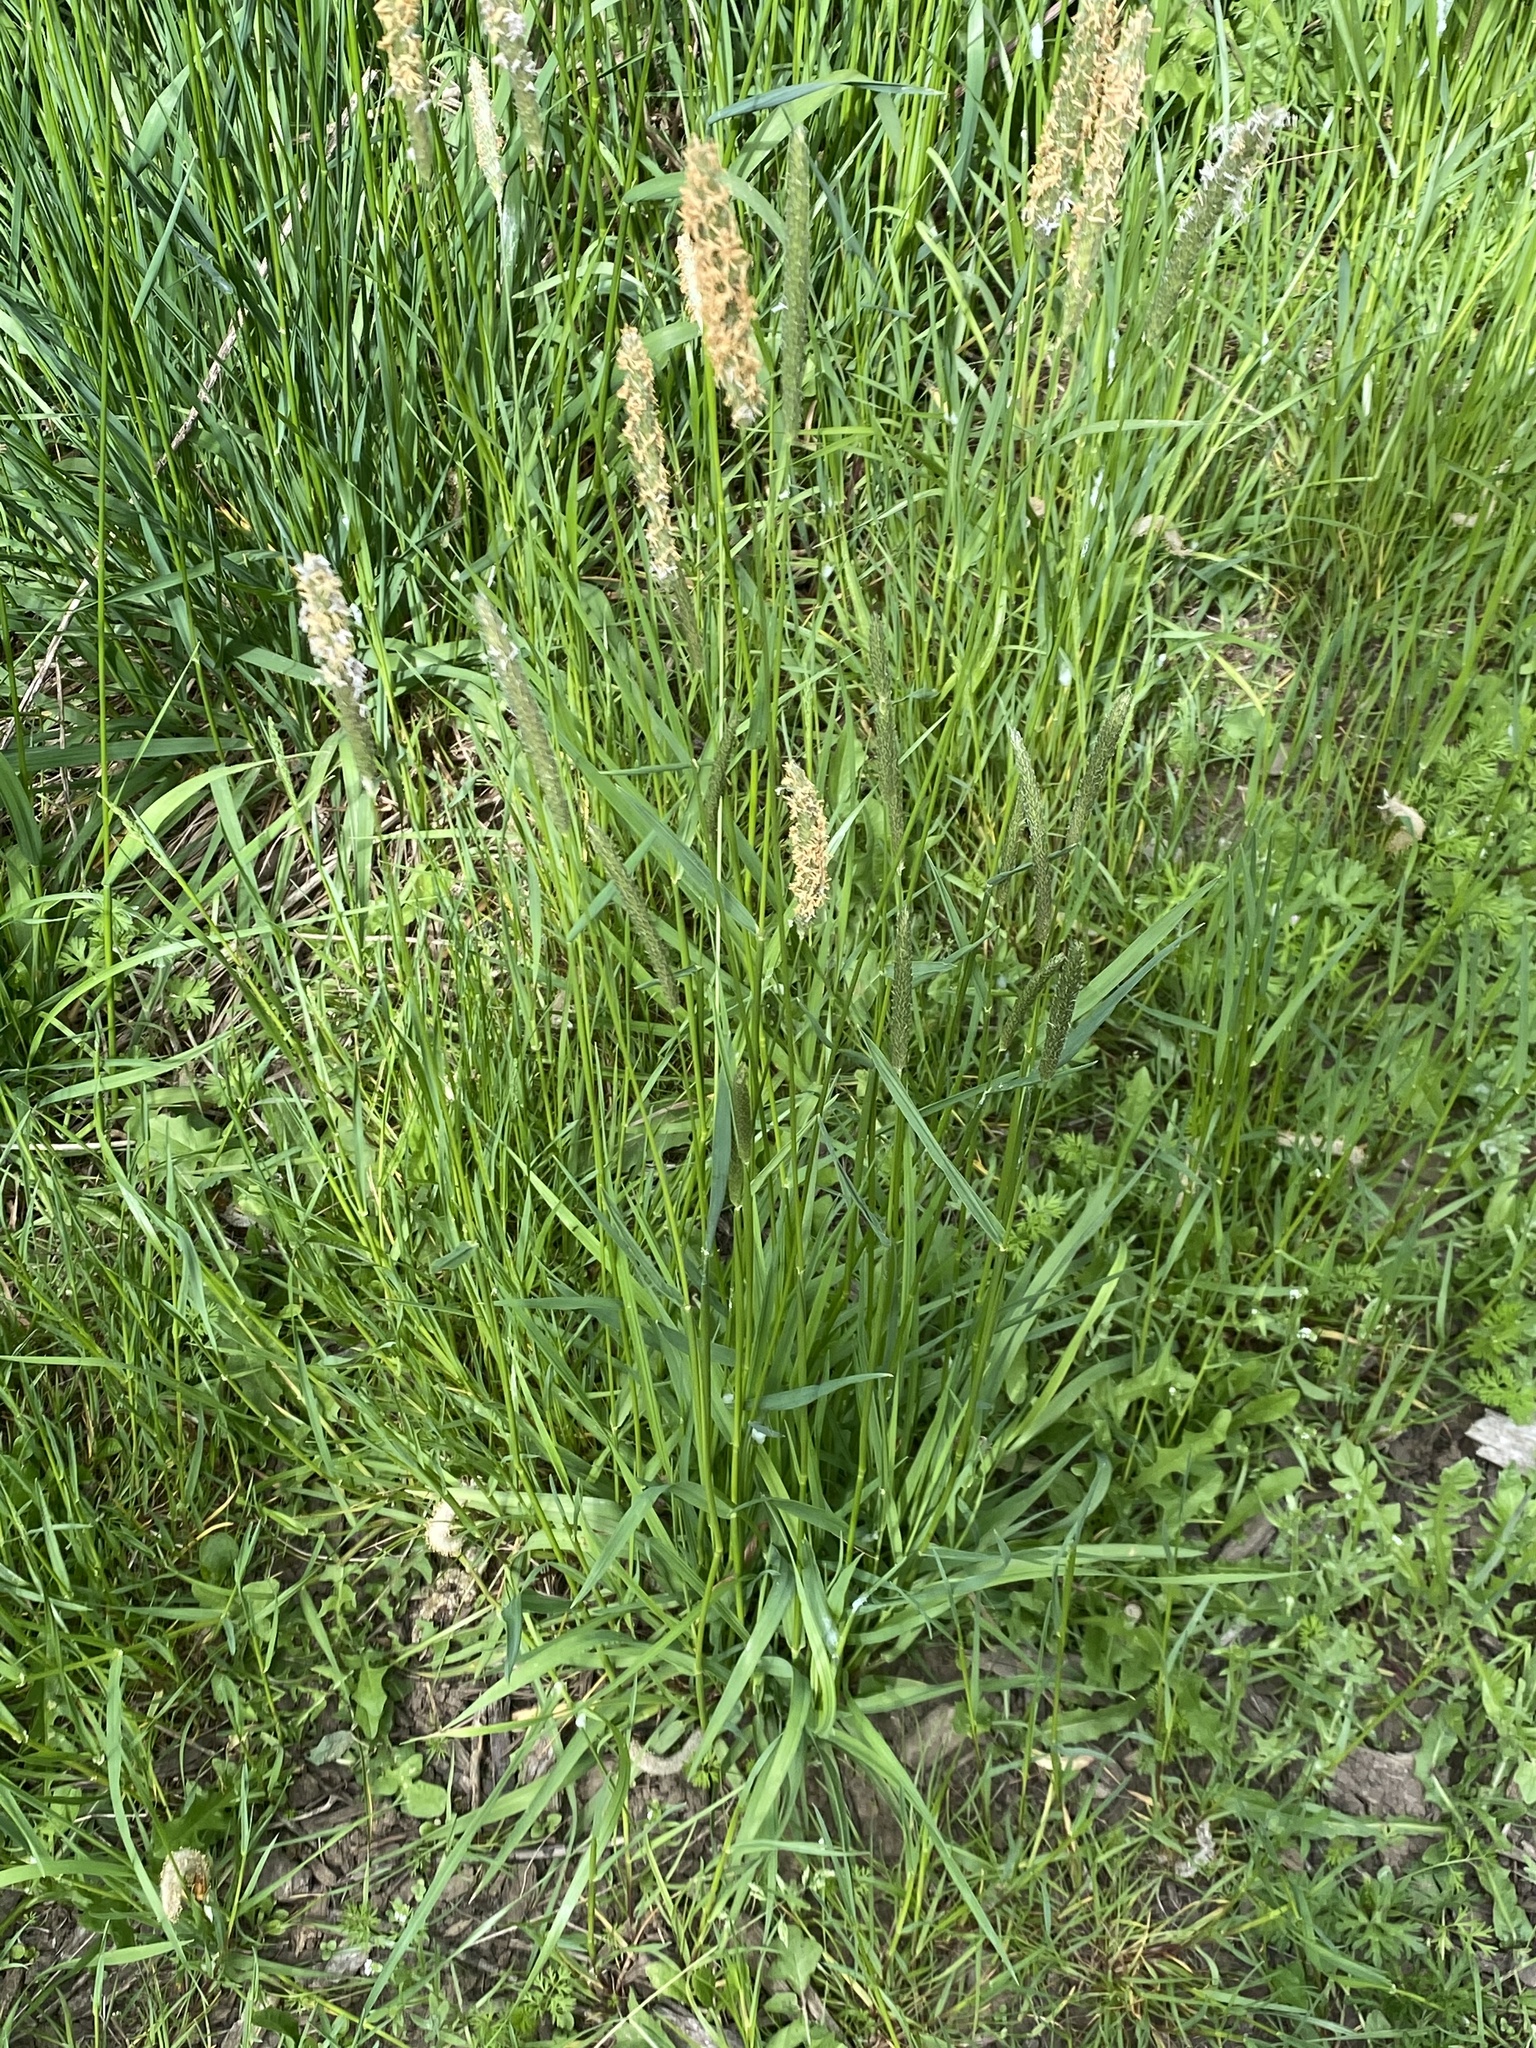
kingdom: Plantae
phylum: Tracheophyta
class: Liliopsida
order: Poales
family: Poaceae
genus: Alopecurus
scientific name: Alopecurus pratensis
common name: Meadow foxtail
